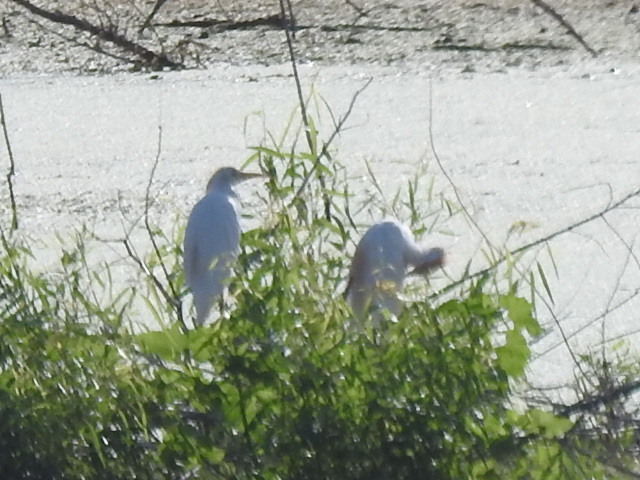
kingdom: Animalia
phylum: Chordata
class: Aves
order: Pelecaniformes
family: Ardeidae
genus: Bubulcus
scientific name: Bubulcus ibis
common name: Cattle egret
